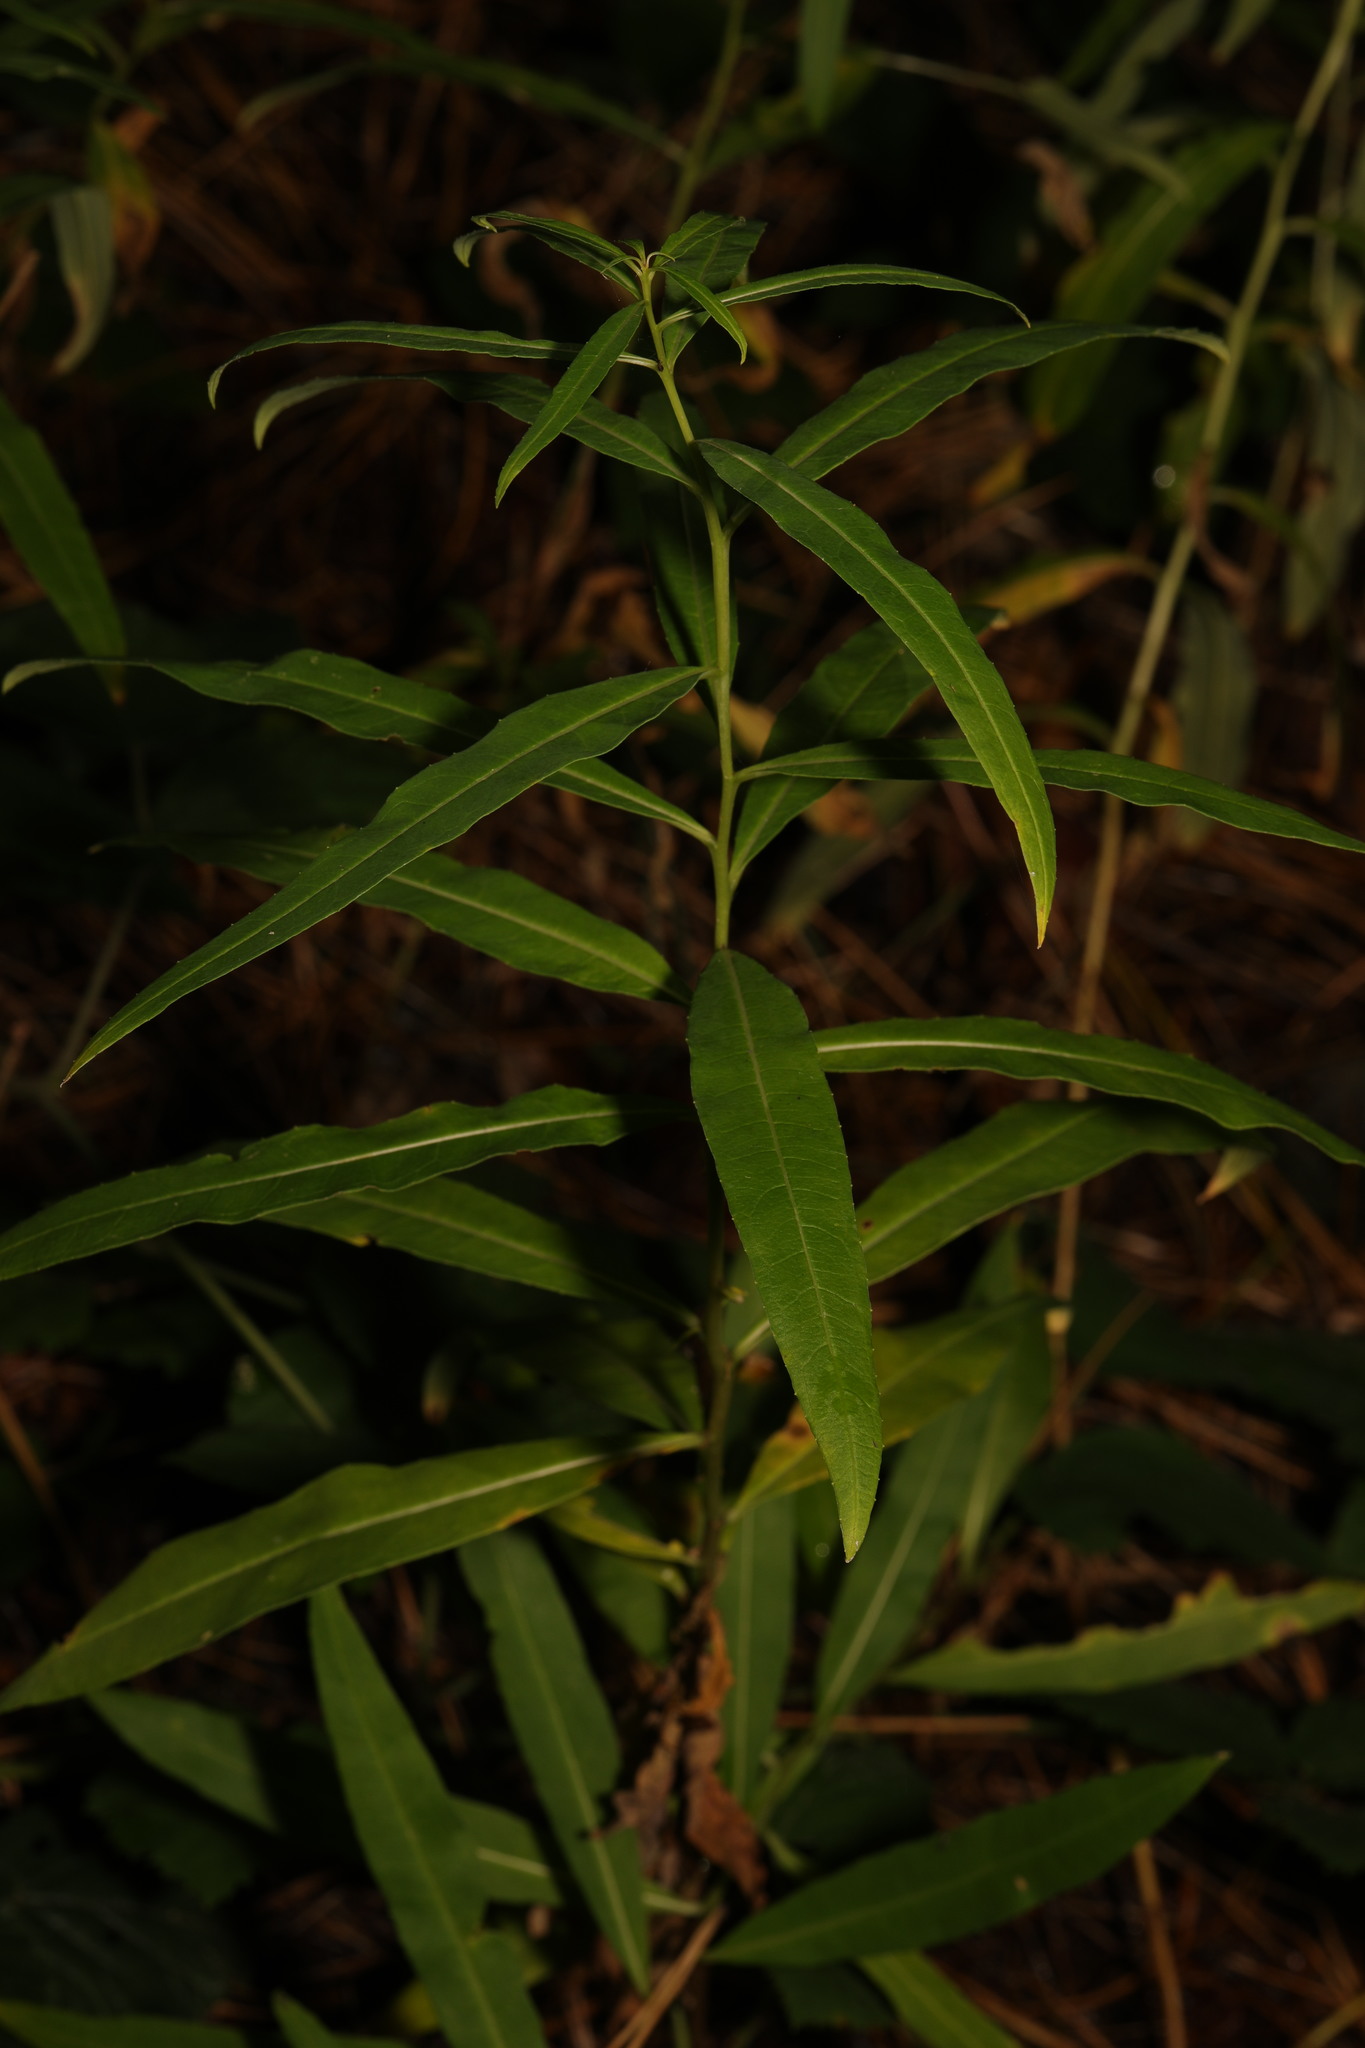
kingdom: Plantae
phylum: Tracheophyta
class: Magnoliopsida
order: Myrtales
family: Onagraceae
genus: Chamaenerion
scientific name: Chamaenerion angustifolium
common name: Fireweed
